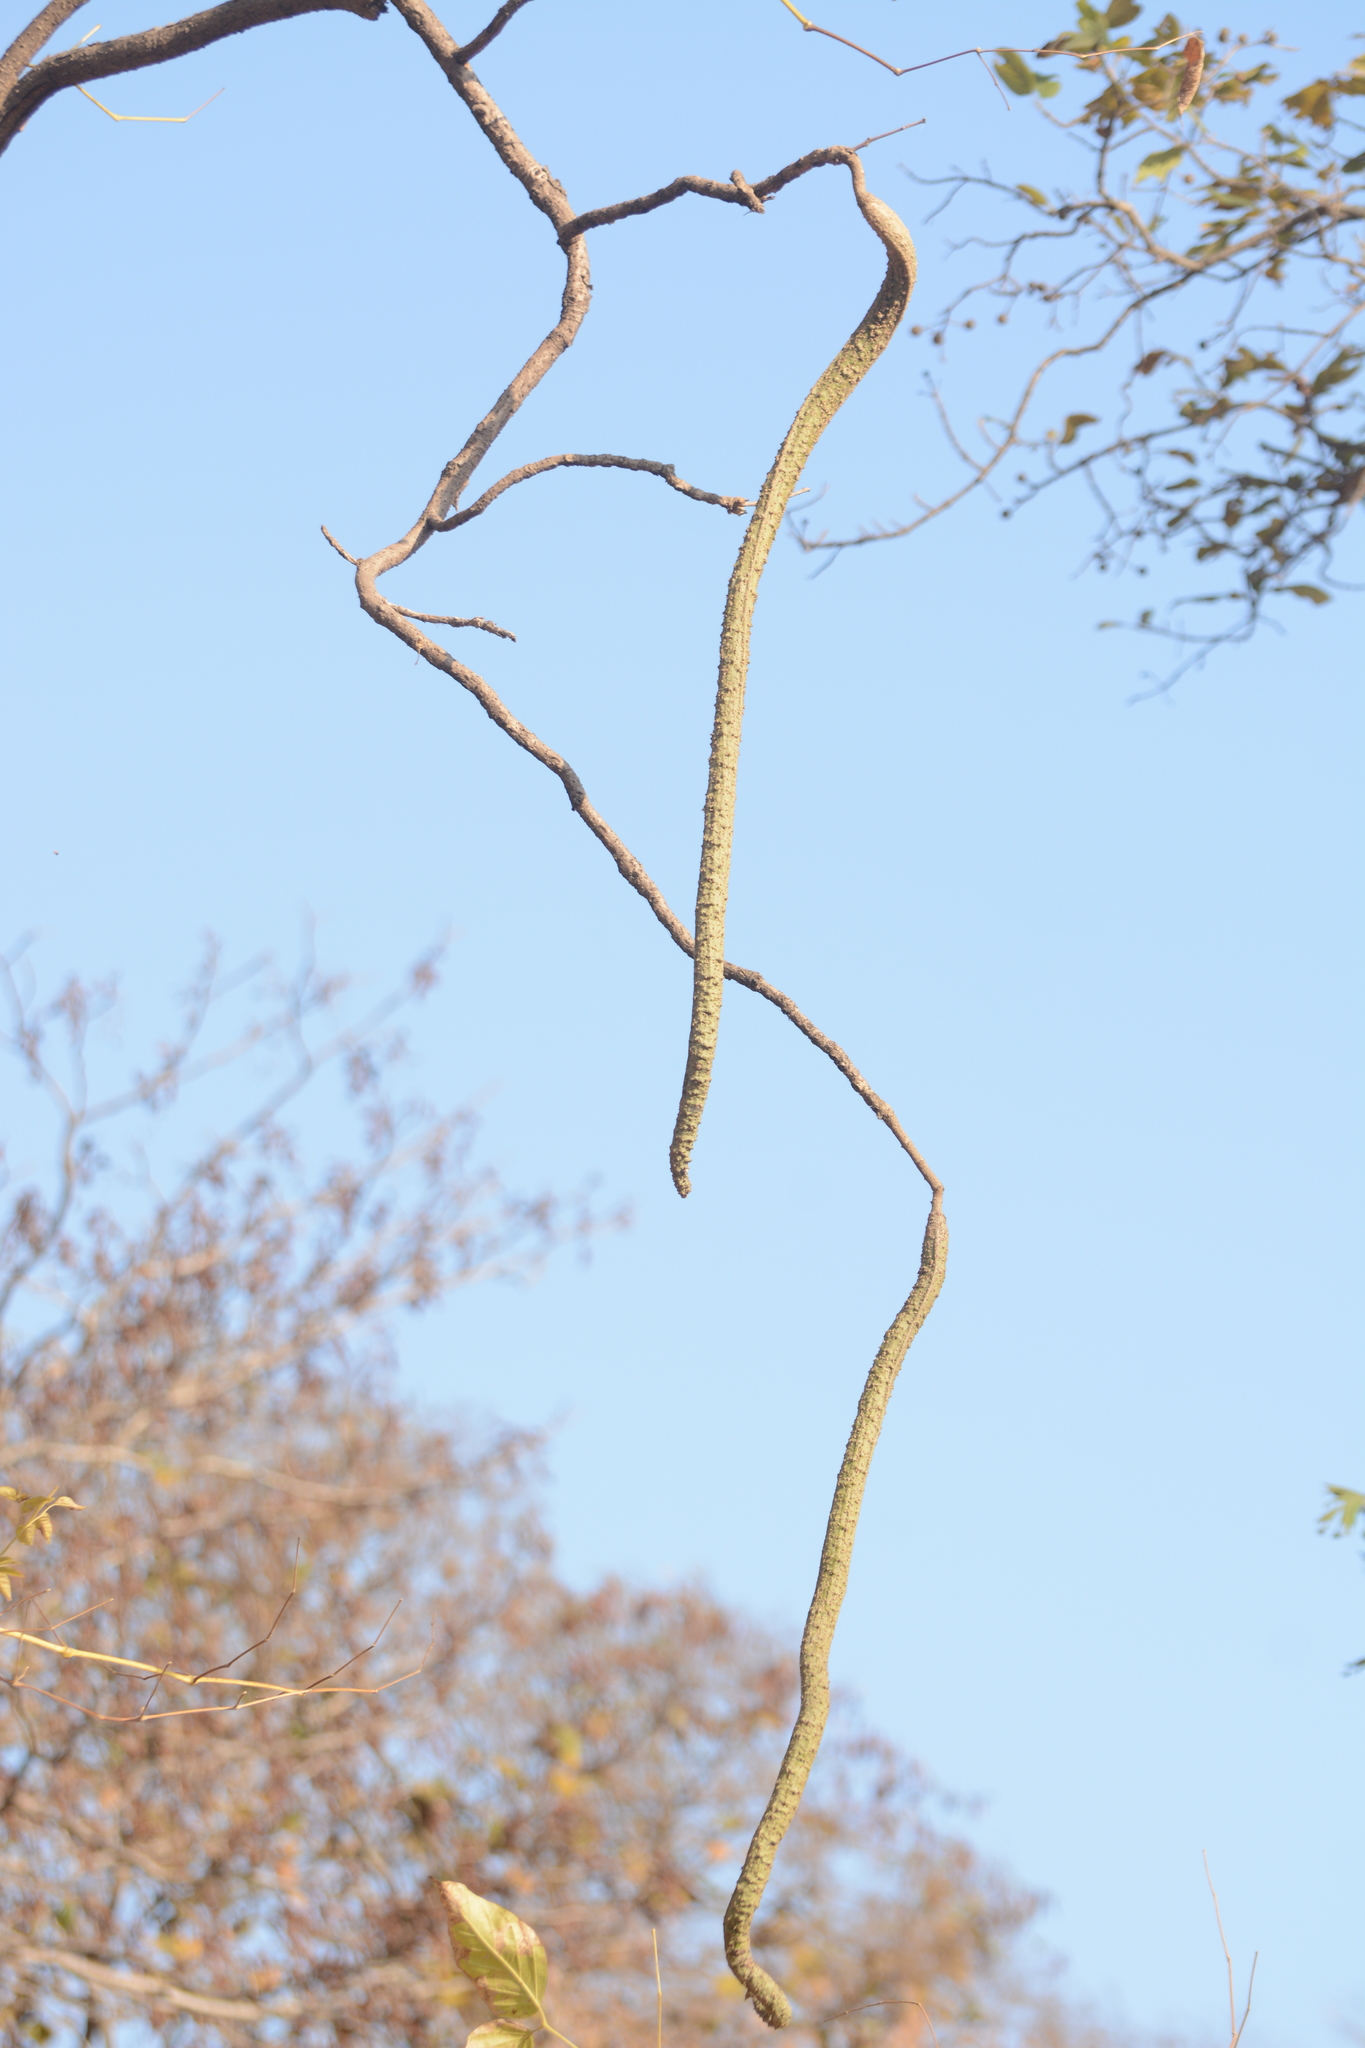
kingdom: Plantae
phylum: Tracheophyta
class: Magnoliopsida
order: Lamiales
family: Bignoniaceae
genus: Radermachera
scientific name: Radermachera xylocarpa
